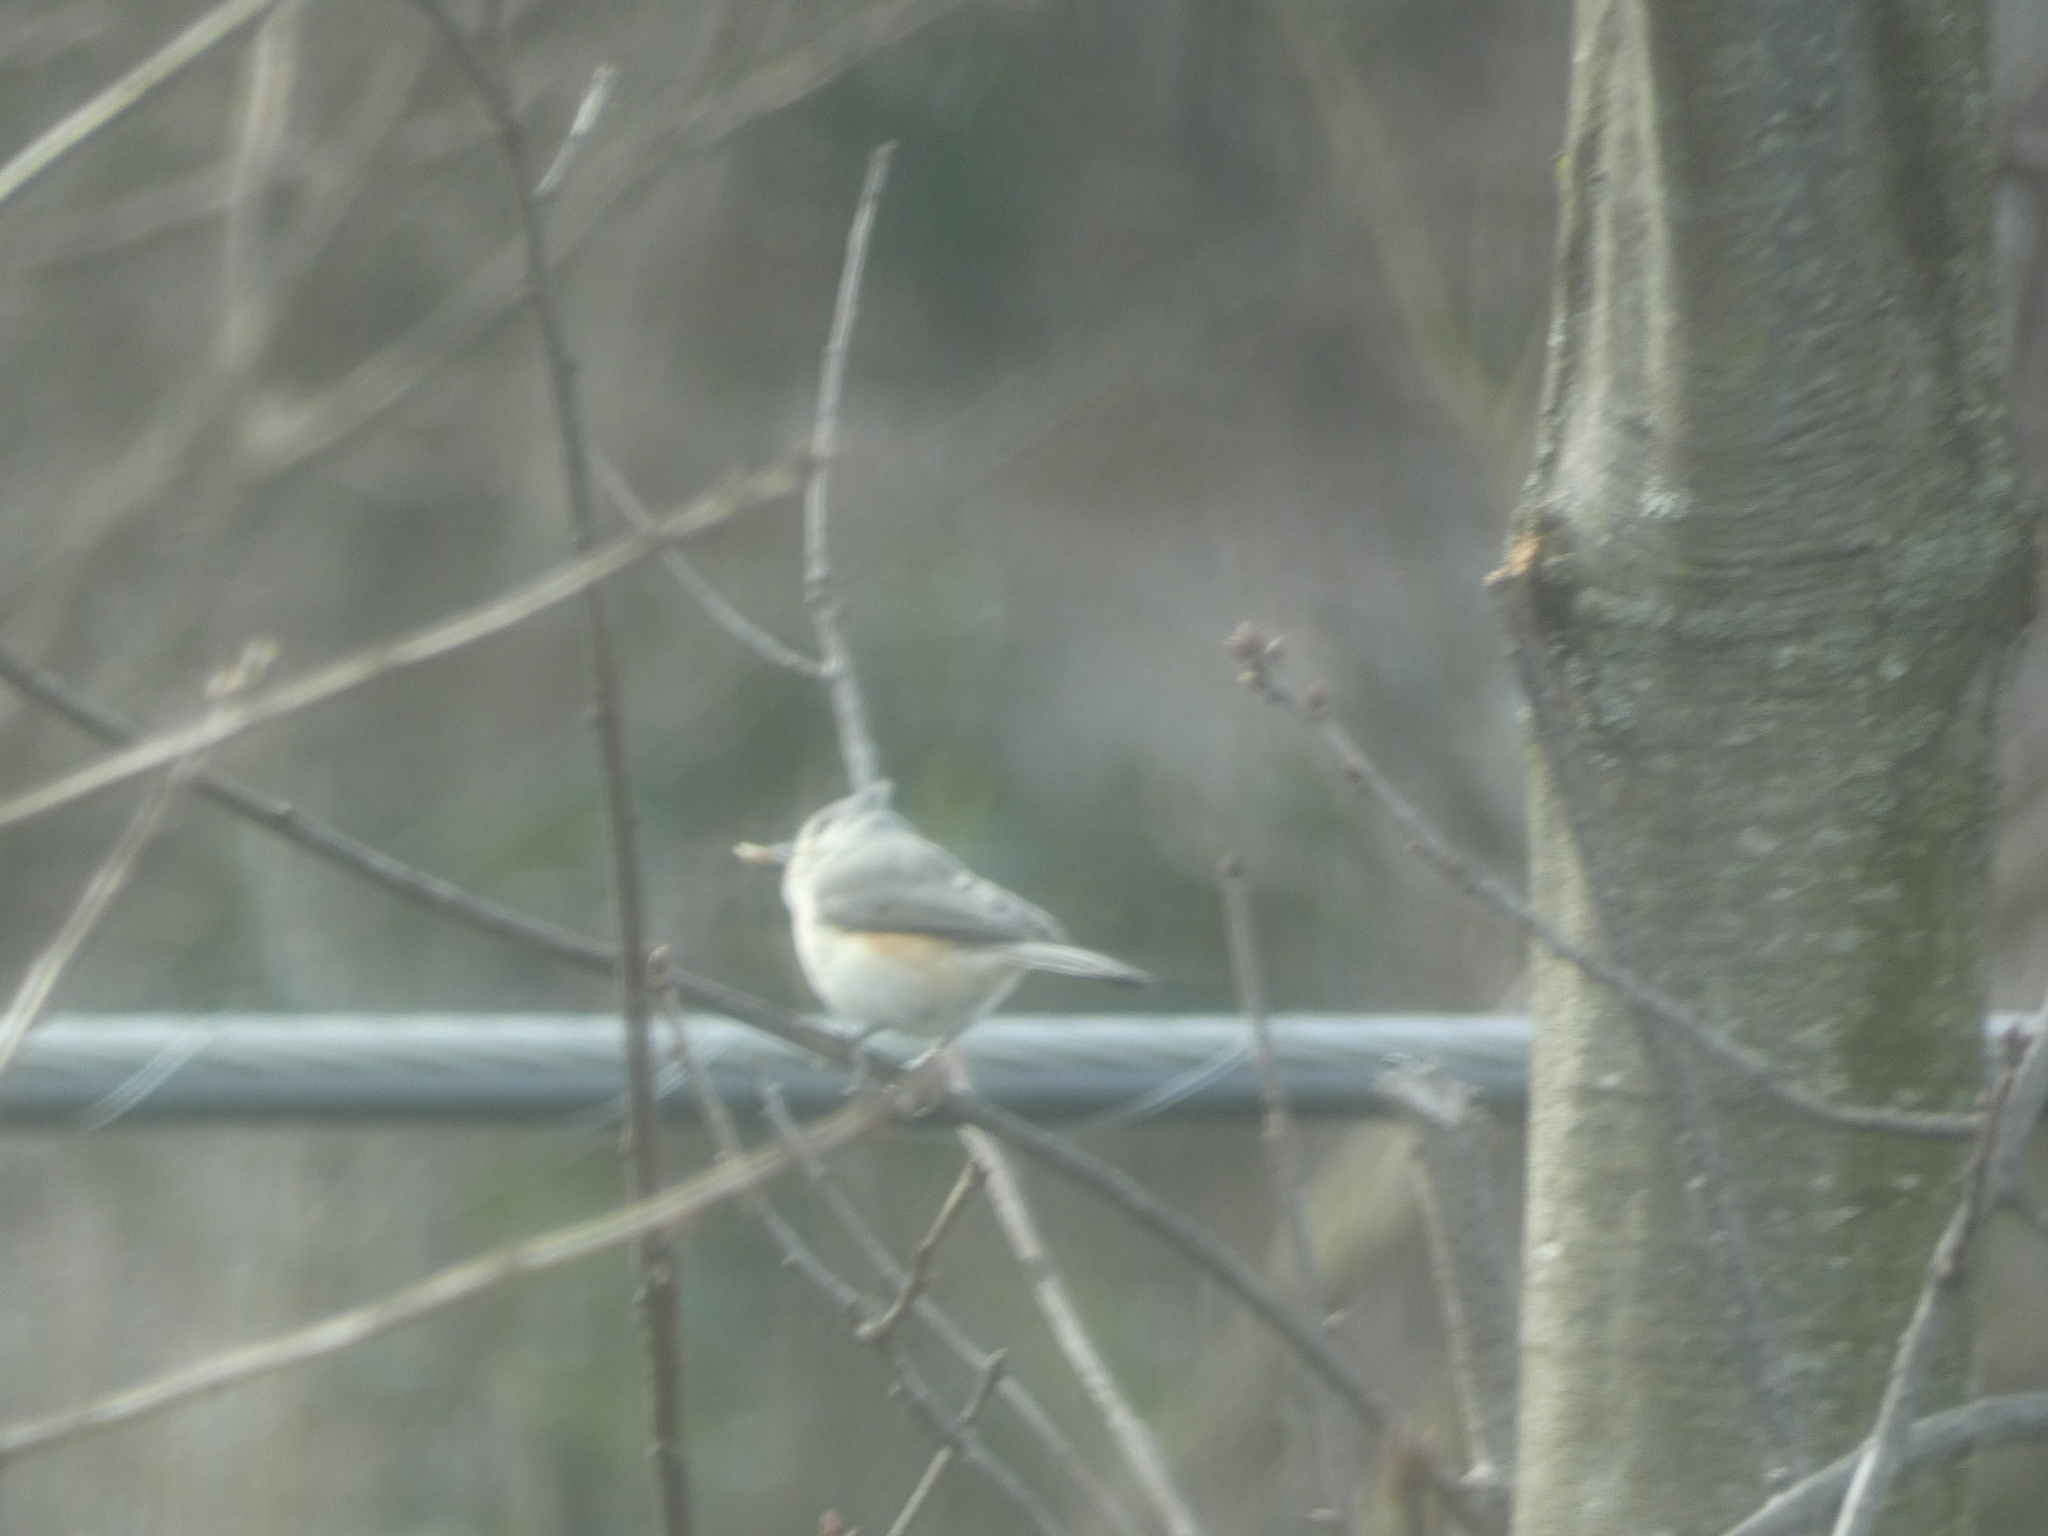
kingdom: Animalia
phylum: Chordata
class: Aves
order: Passeriformes
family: Paridae
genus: Baeolophus
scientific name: Baeolophus bicolor
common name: Tufted titmouse
